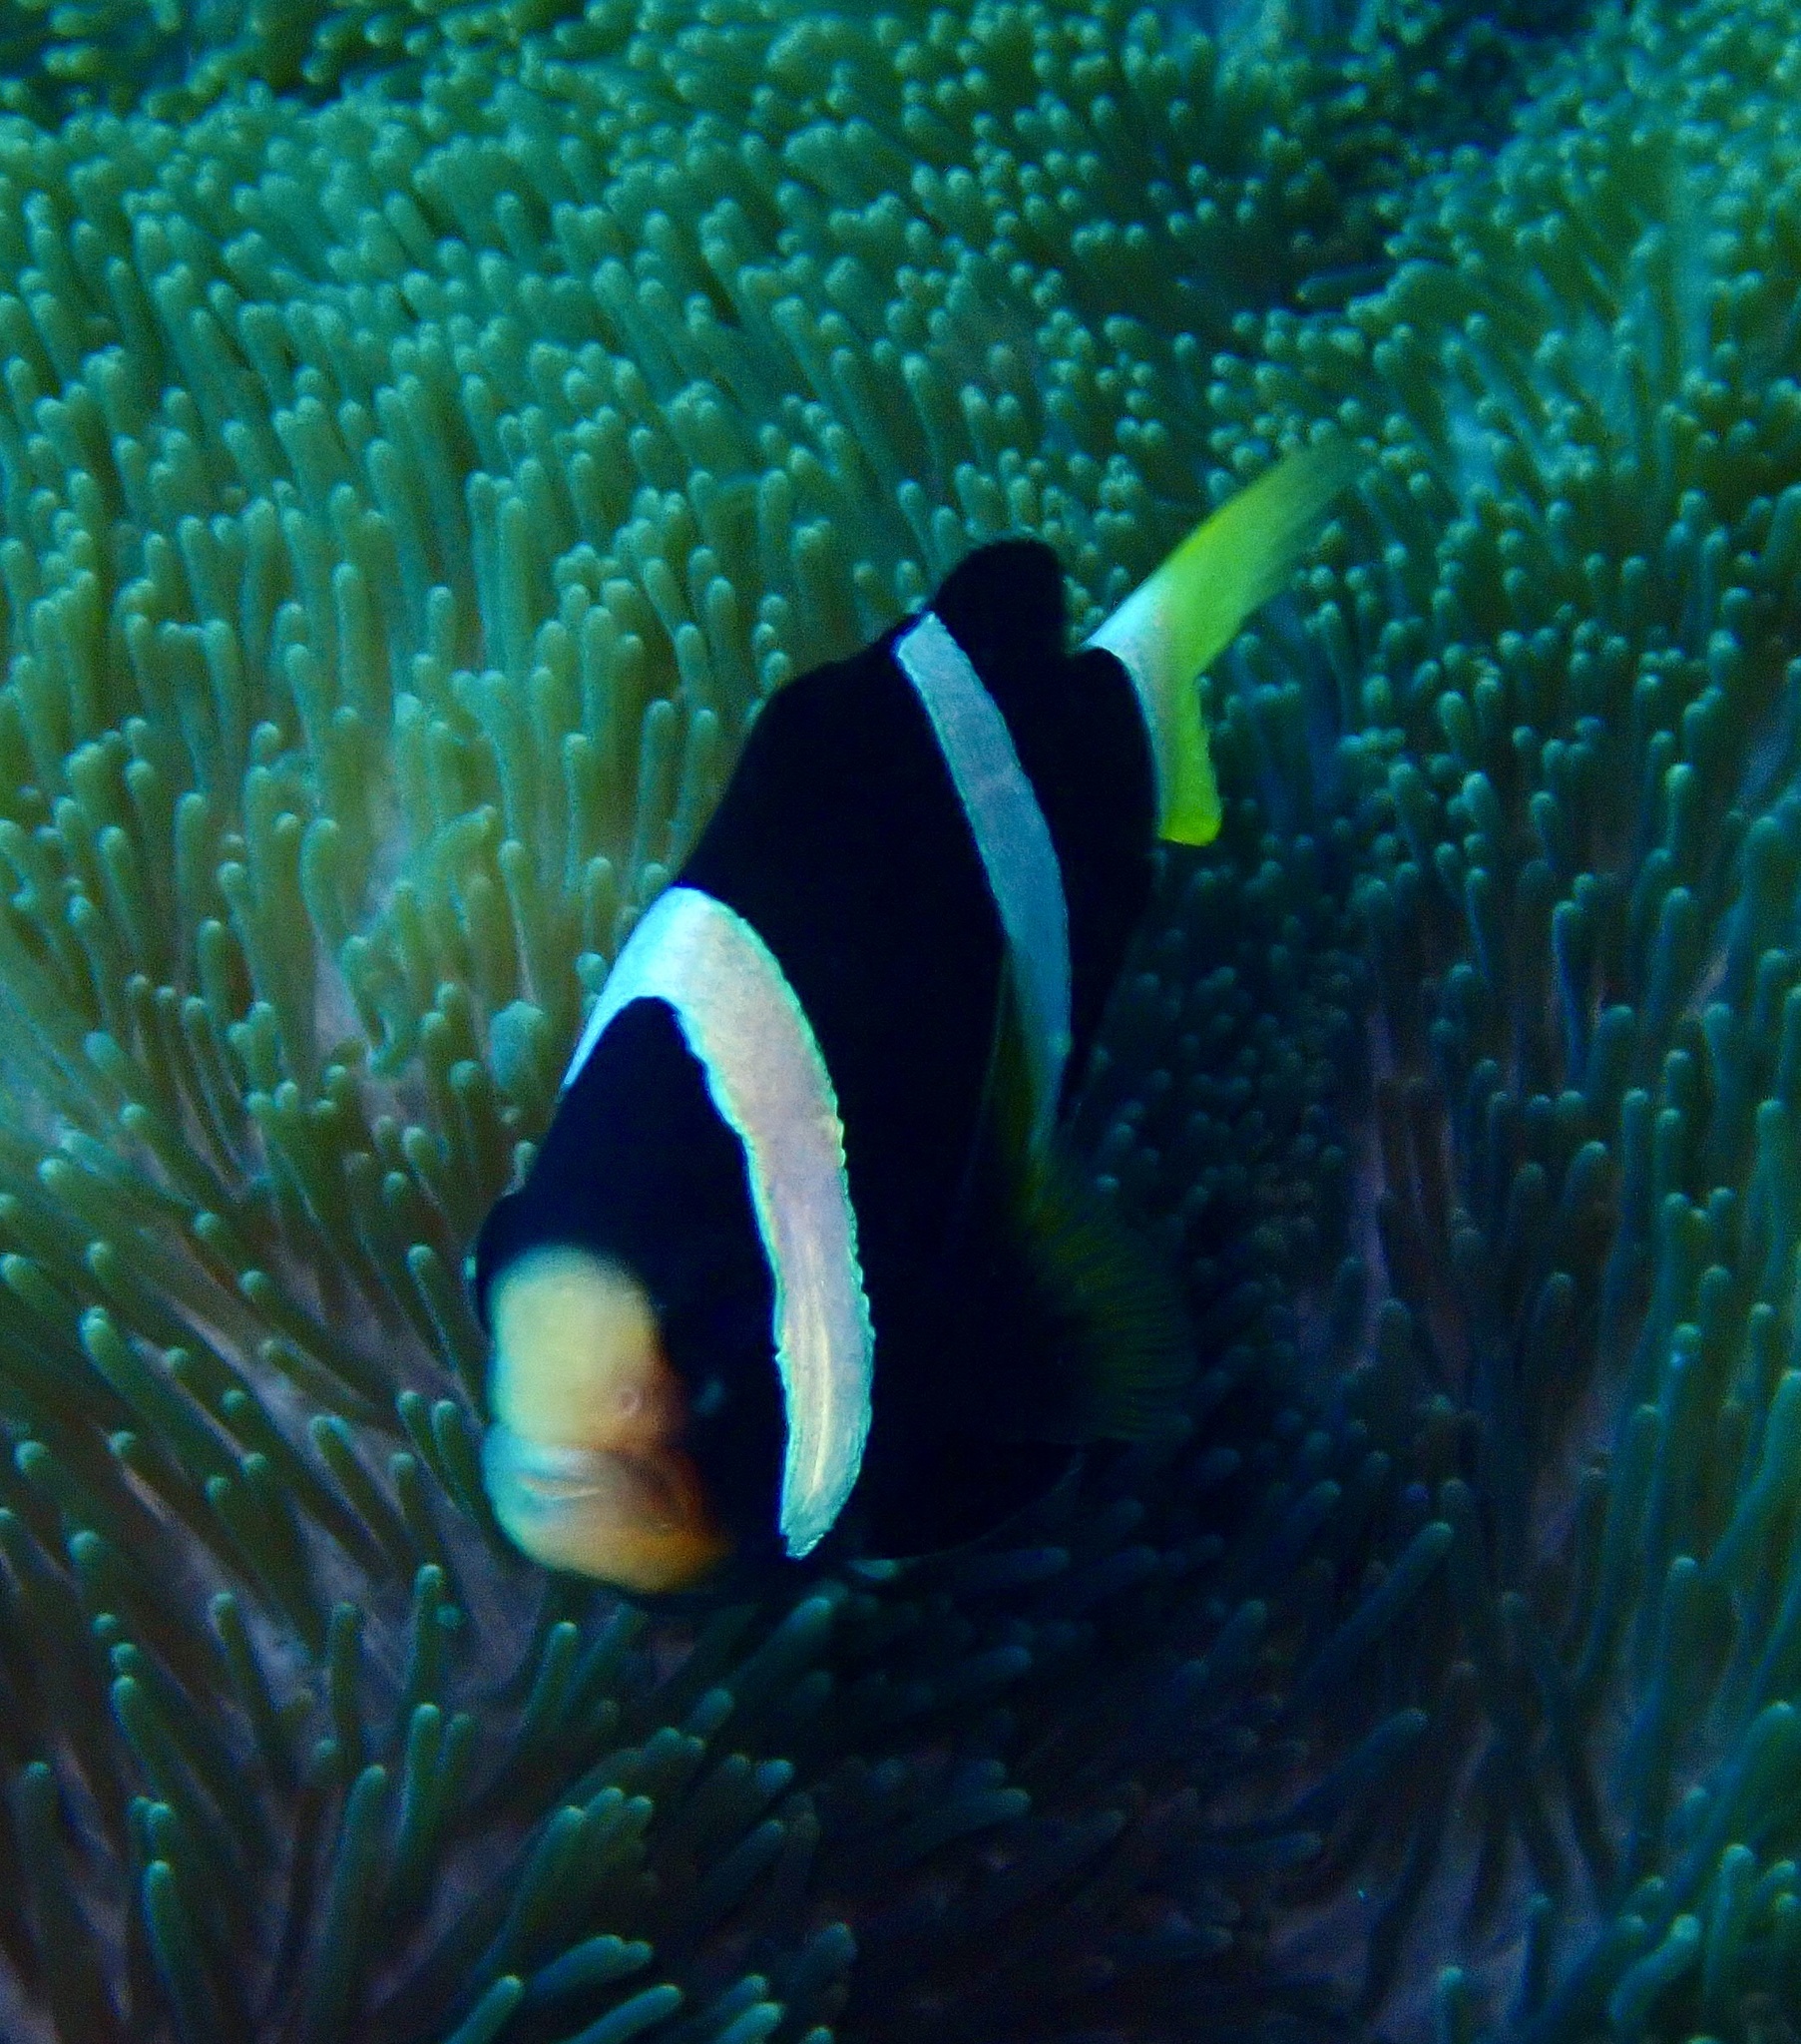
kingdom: Animalia
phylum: Chordata
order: Perciformes
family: Pomacentridae
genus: Amphiprion
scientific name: Amphiprion clarkii
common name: Clark's anemonefish
